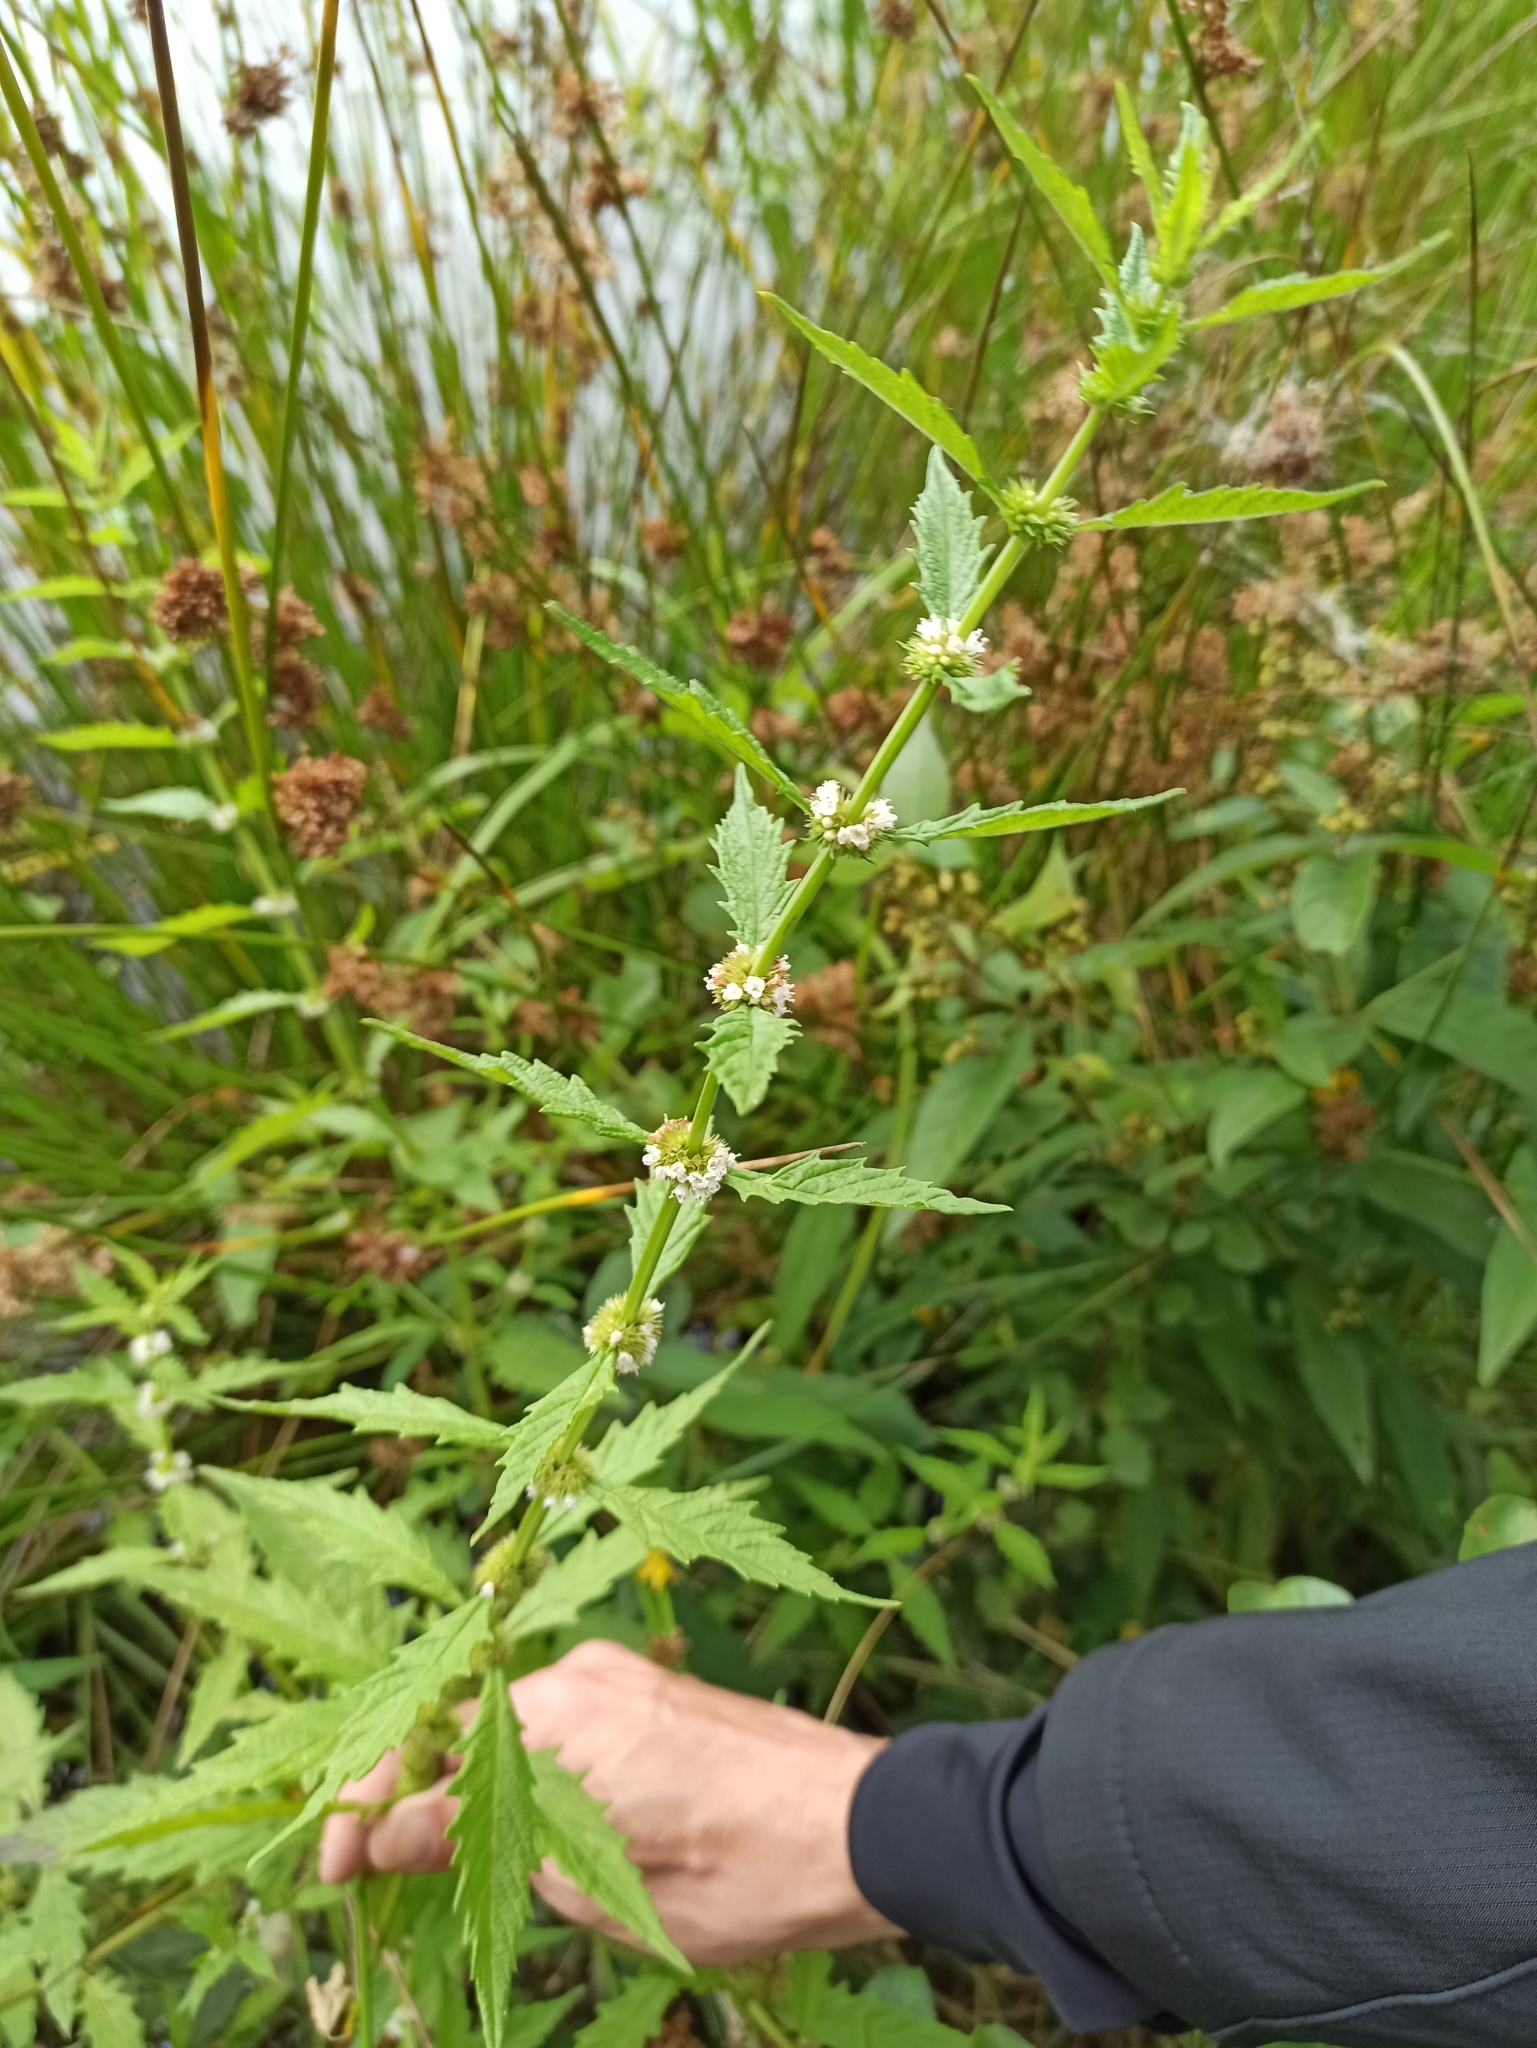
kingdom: Plantae
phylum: Tracheophyta
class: Magnoliopsida
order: Lamiales
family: Lamiaceae
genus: Lycopus
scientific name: Lycopus europaeus
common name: European bugleweed
